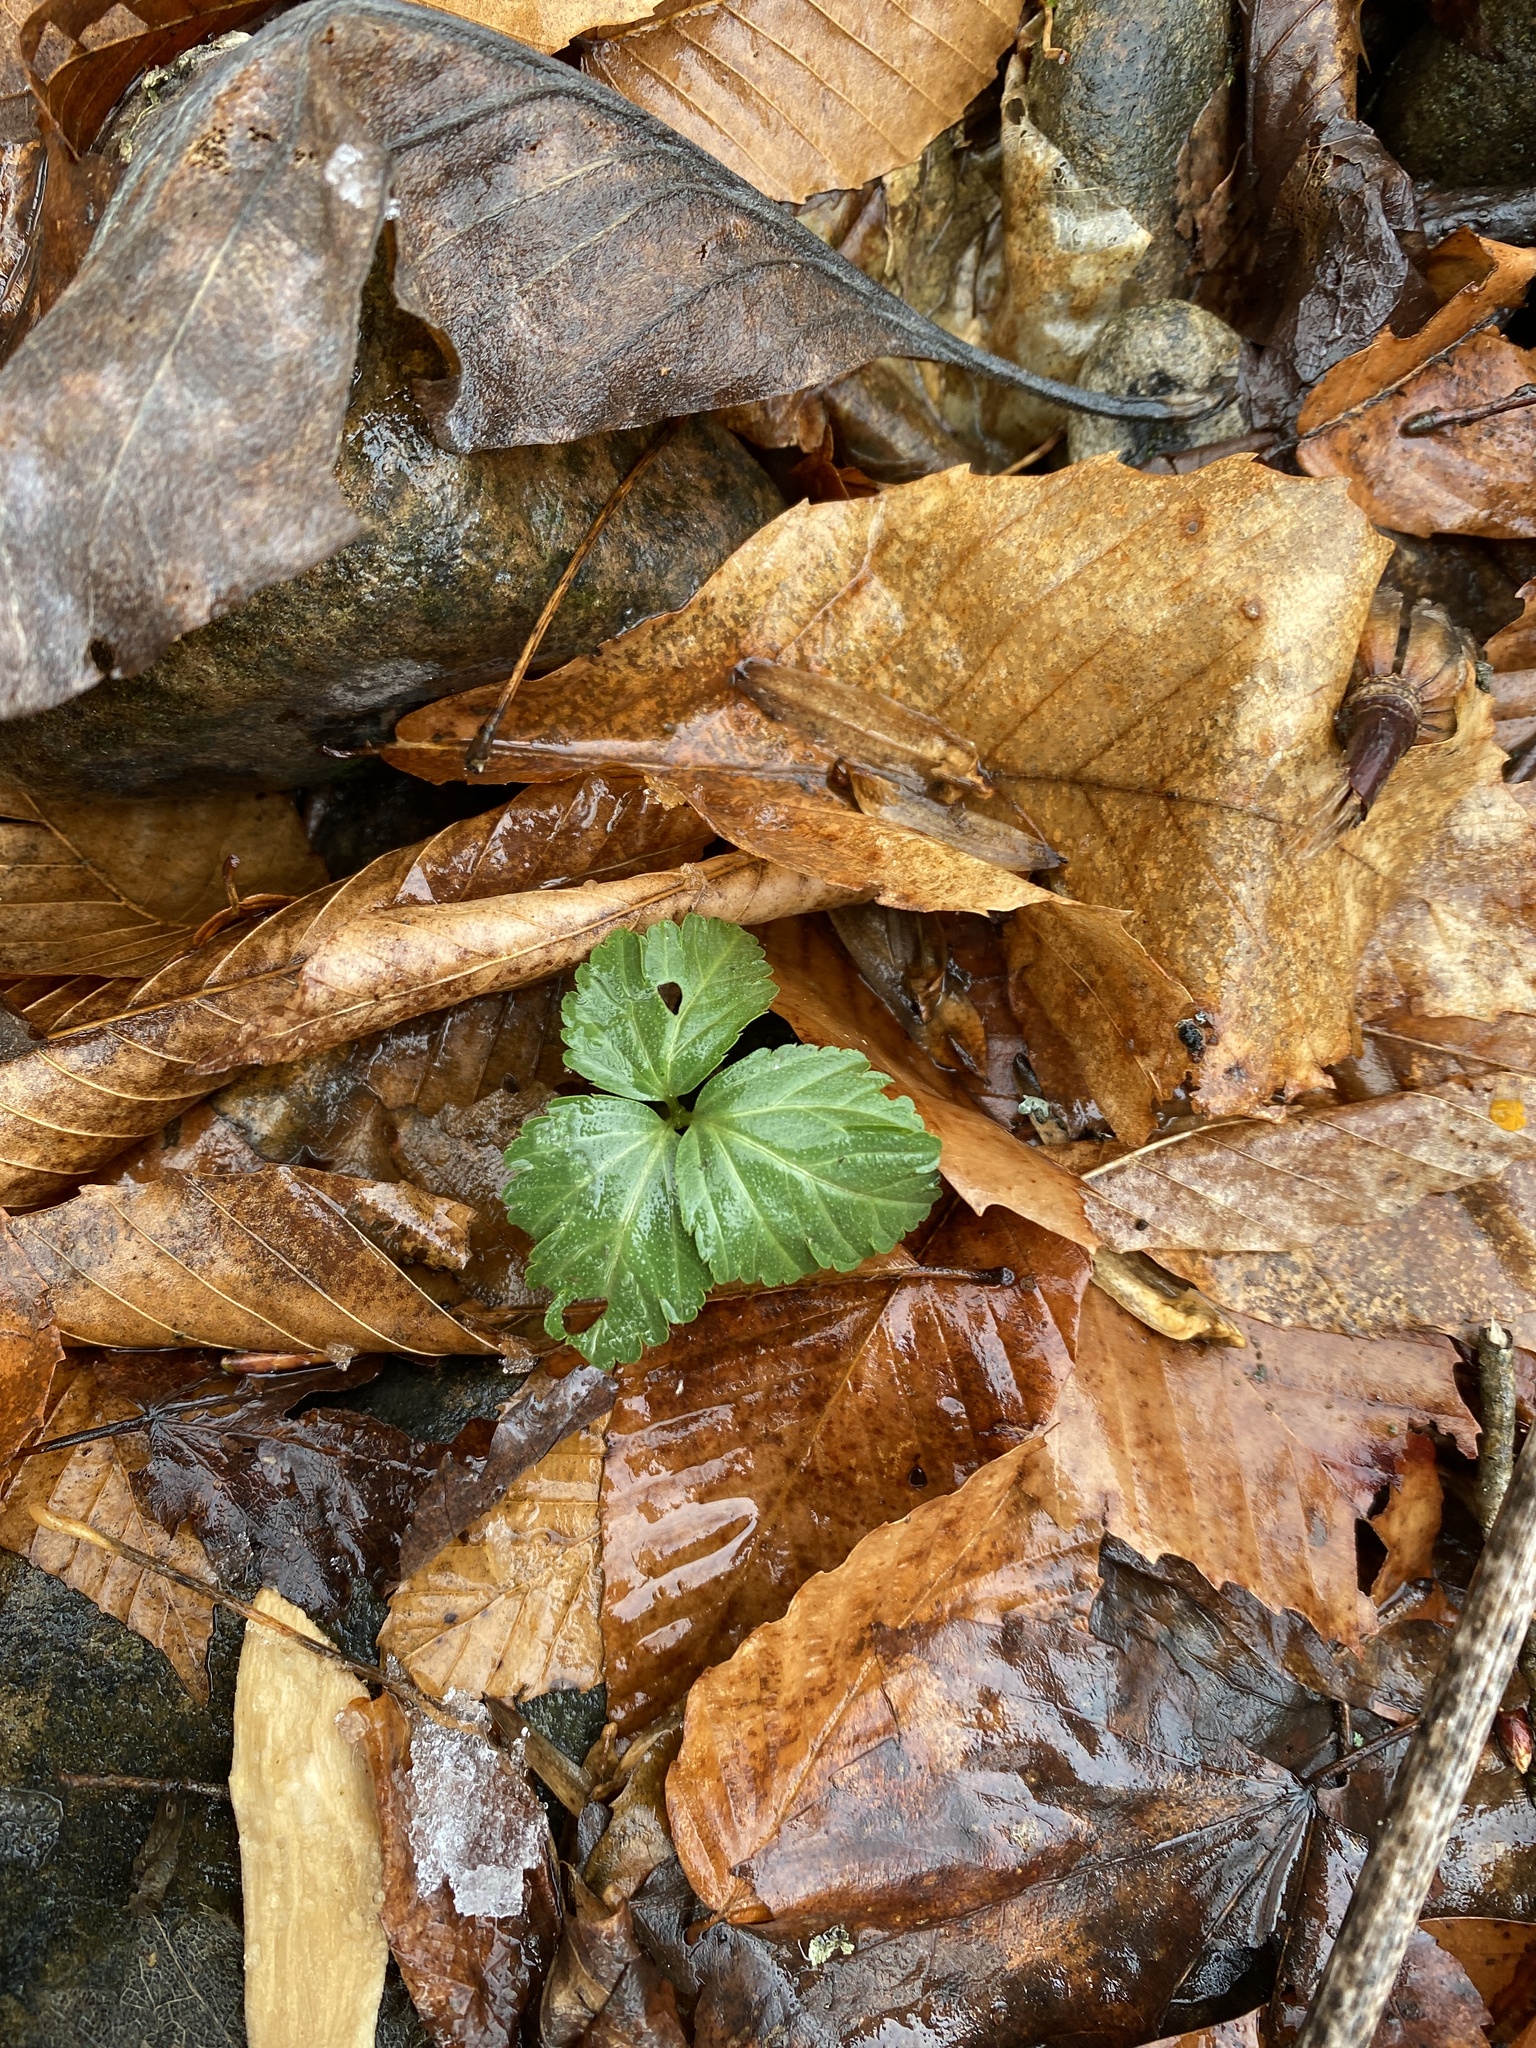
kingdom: Plantae
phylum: Tracheophyta
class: Magnoliopsida
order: Brassicales
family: Brassicaceae
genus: Cardamine
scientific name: Cardamine angustata
